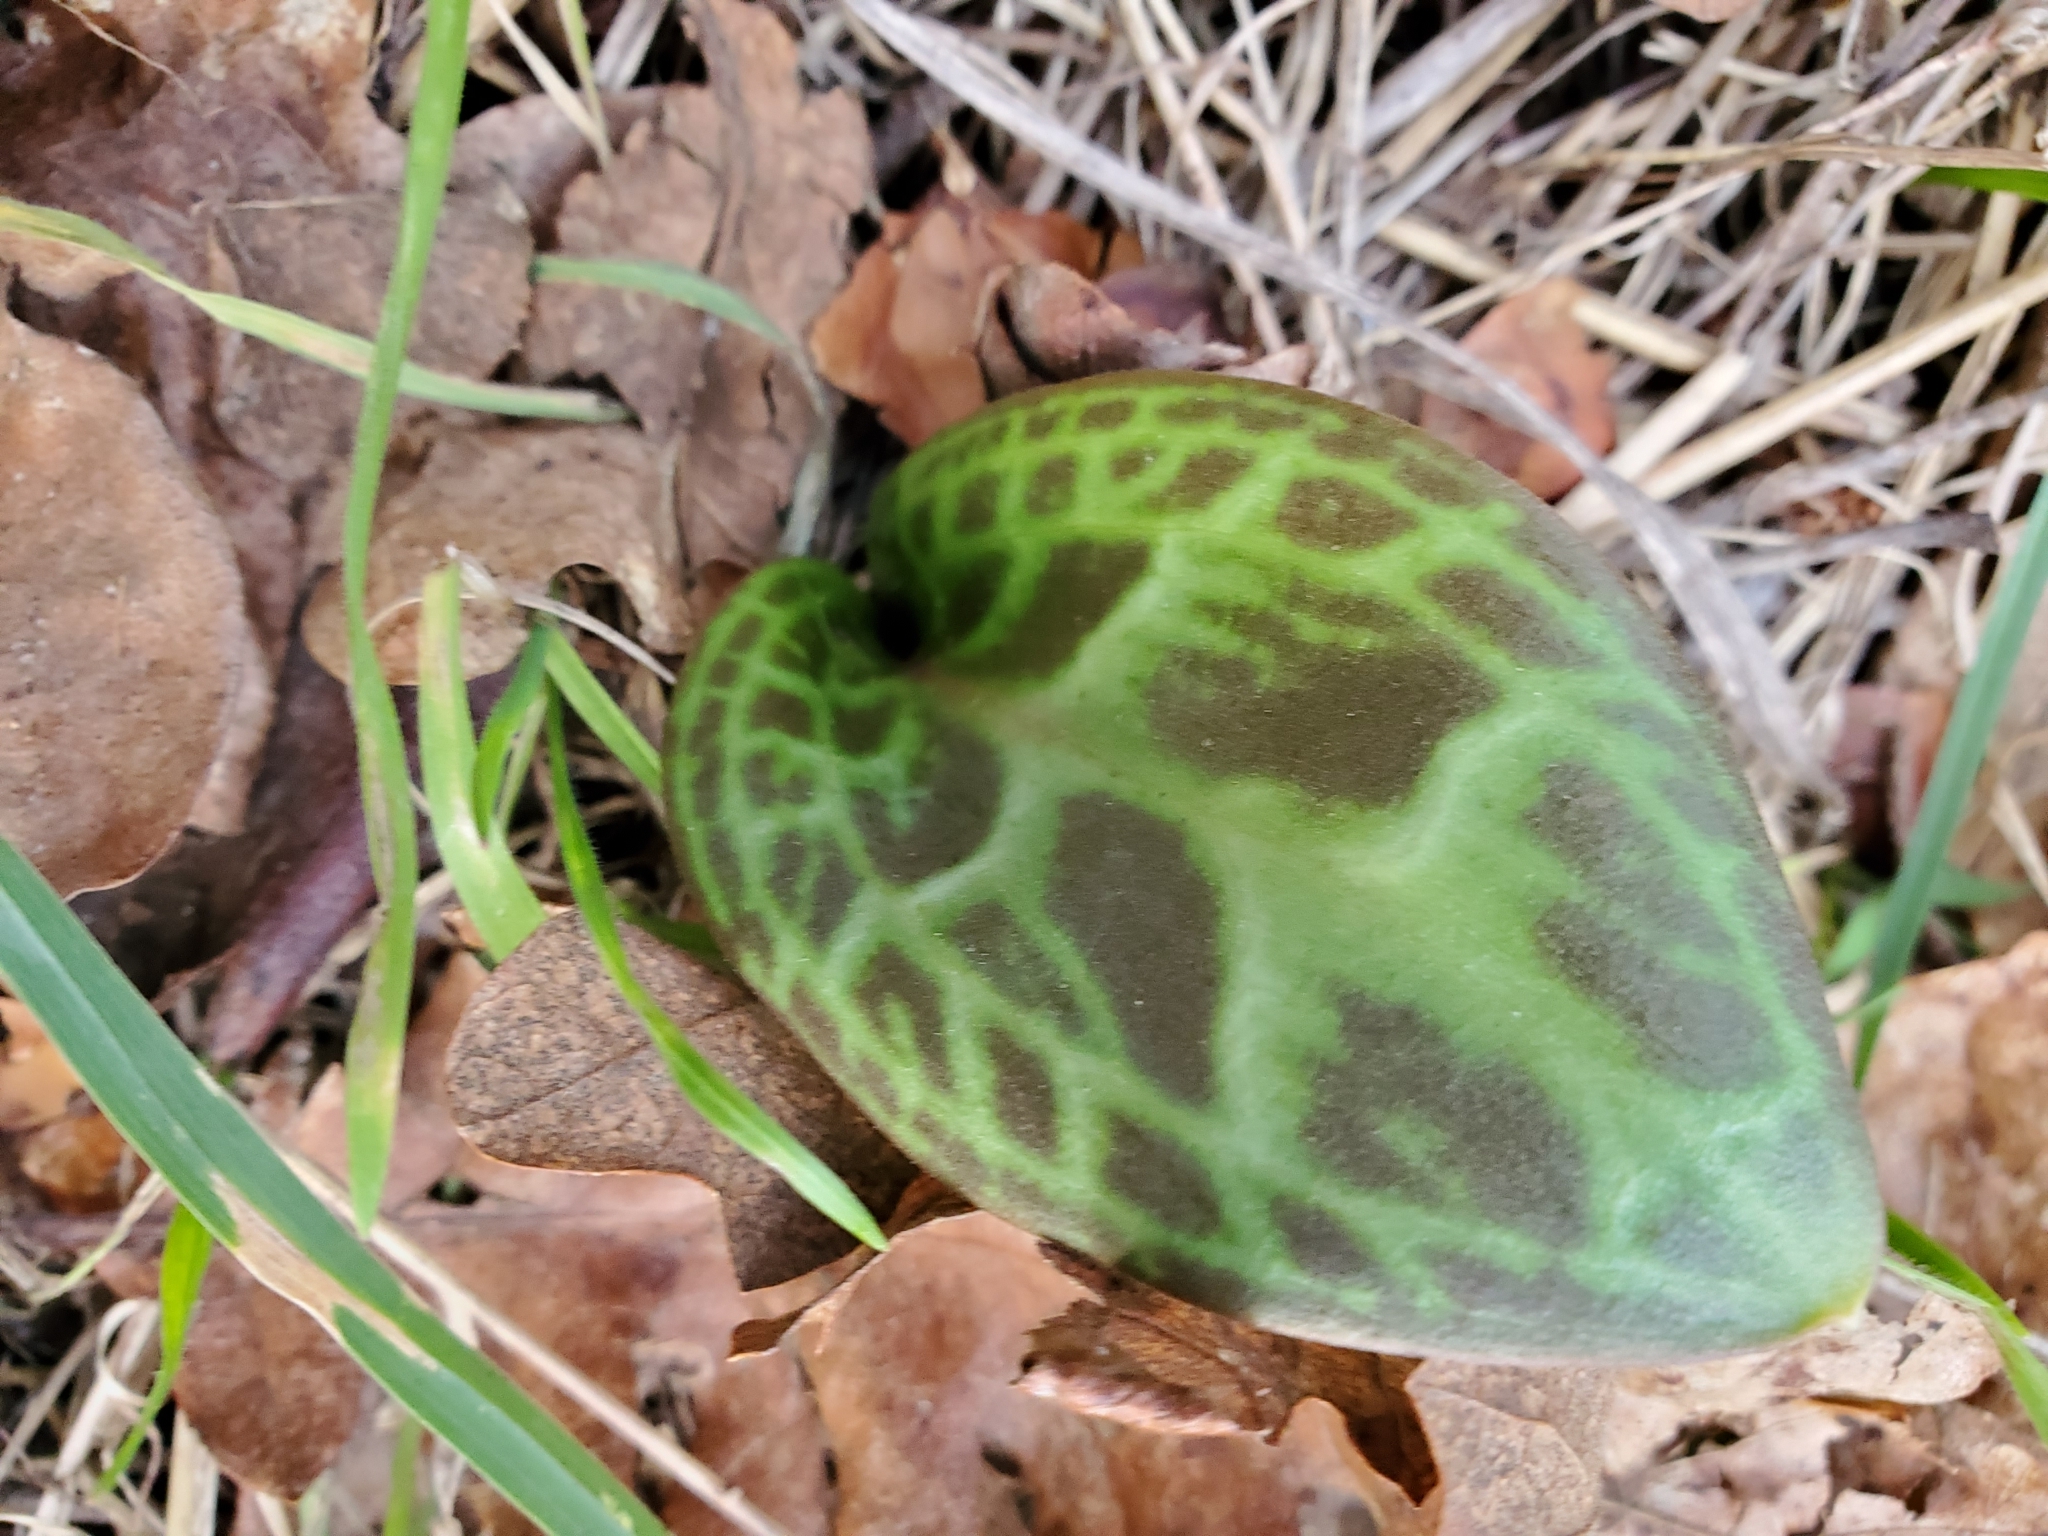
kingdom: Plantae
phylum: Tracheophyta
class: Liliopsida
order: Liliales
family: Liliaceae
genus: Erythronium
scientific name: Erythronium oregonum
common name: Giant adder's-tongue
